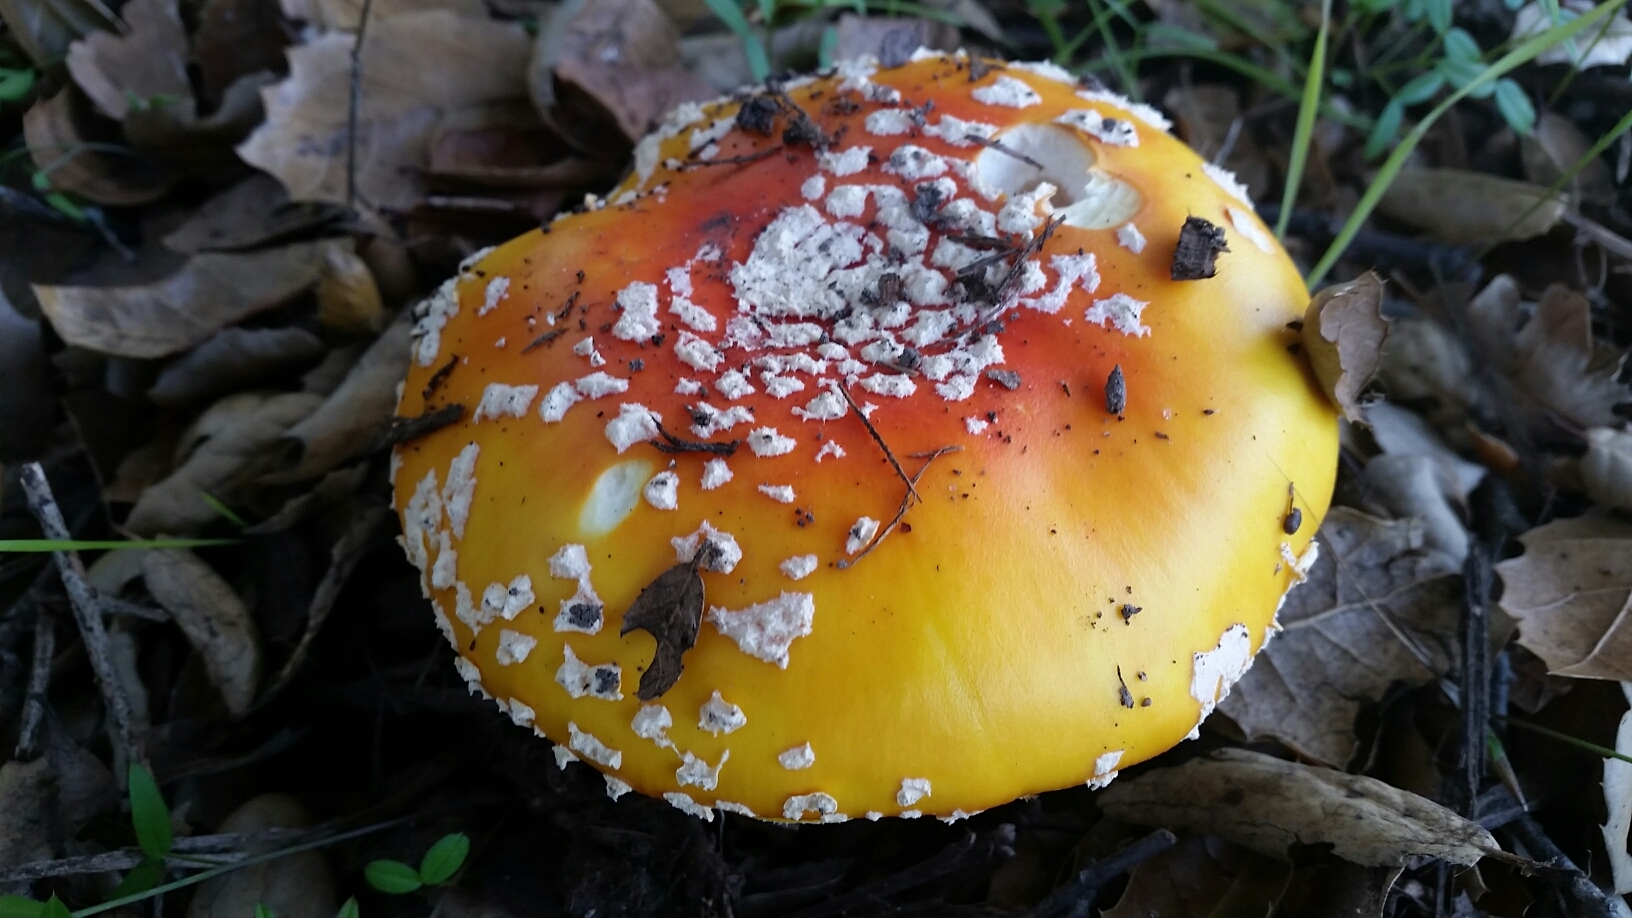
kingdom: Fungi
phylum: Basidiomycota
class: Agaricomycetes
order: Agaricales
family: Amanitaceae
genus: Amanita
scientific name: Amanita muscaria
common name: Fly agaric
